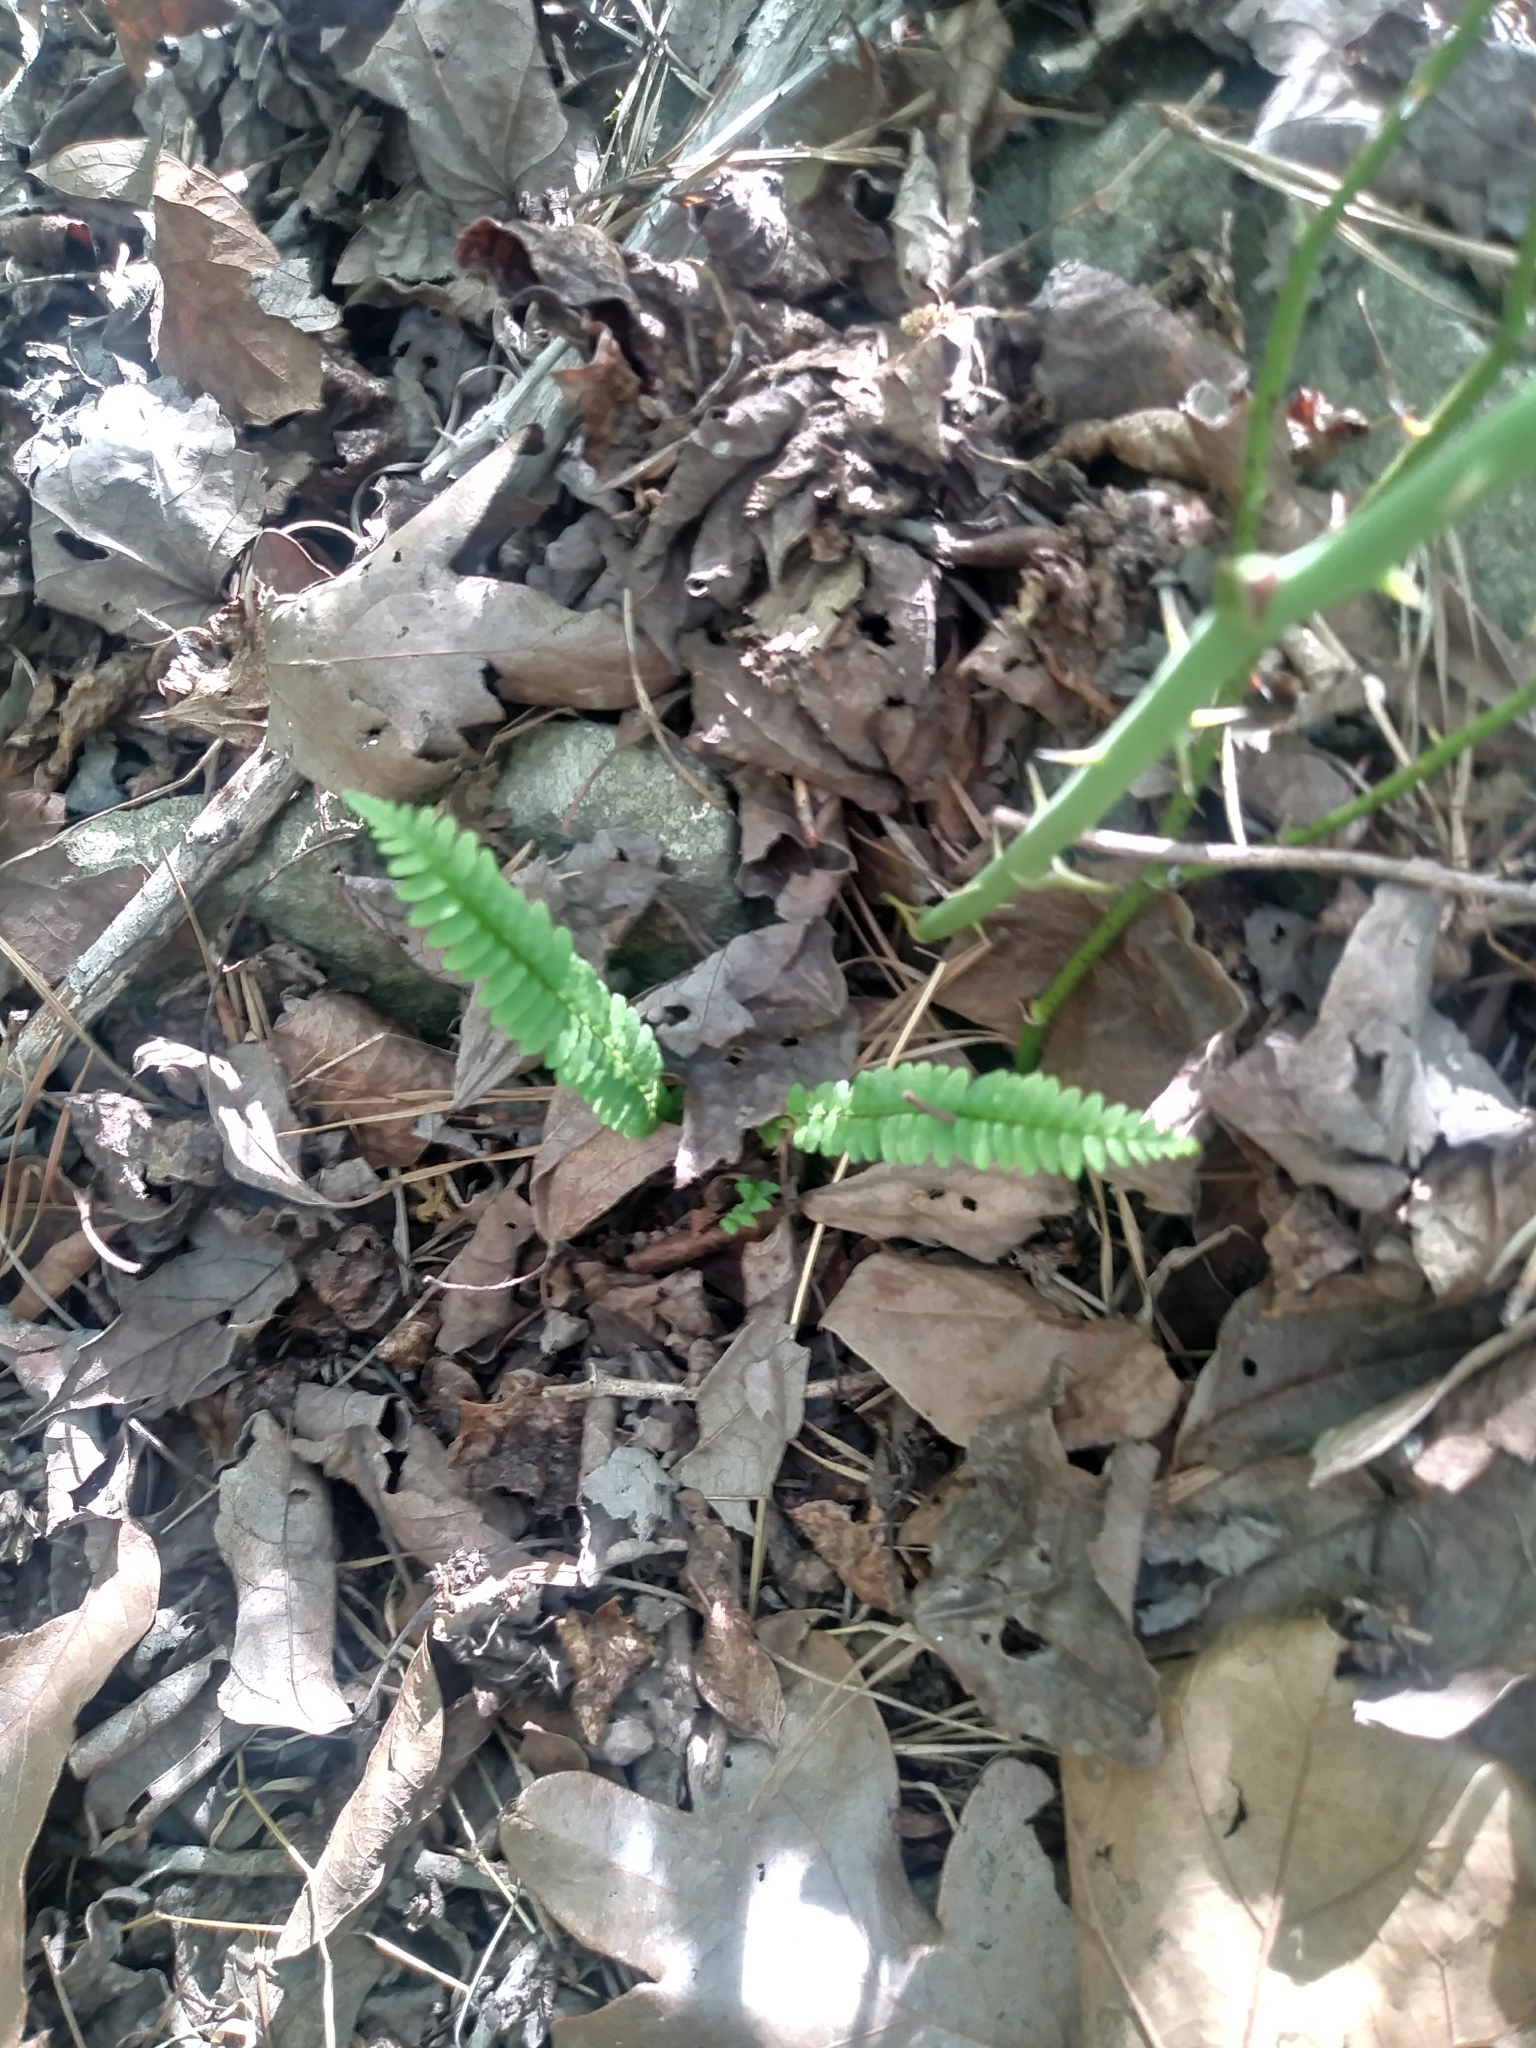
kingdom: Plantae
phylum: Tracheophyta
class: Polypodiopsida
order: Polypodiales
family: Aspleniaceae
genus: Asplenium
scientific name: Asplenium platyneuron
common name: Ebony spleenwort
